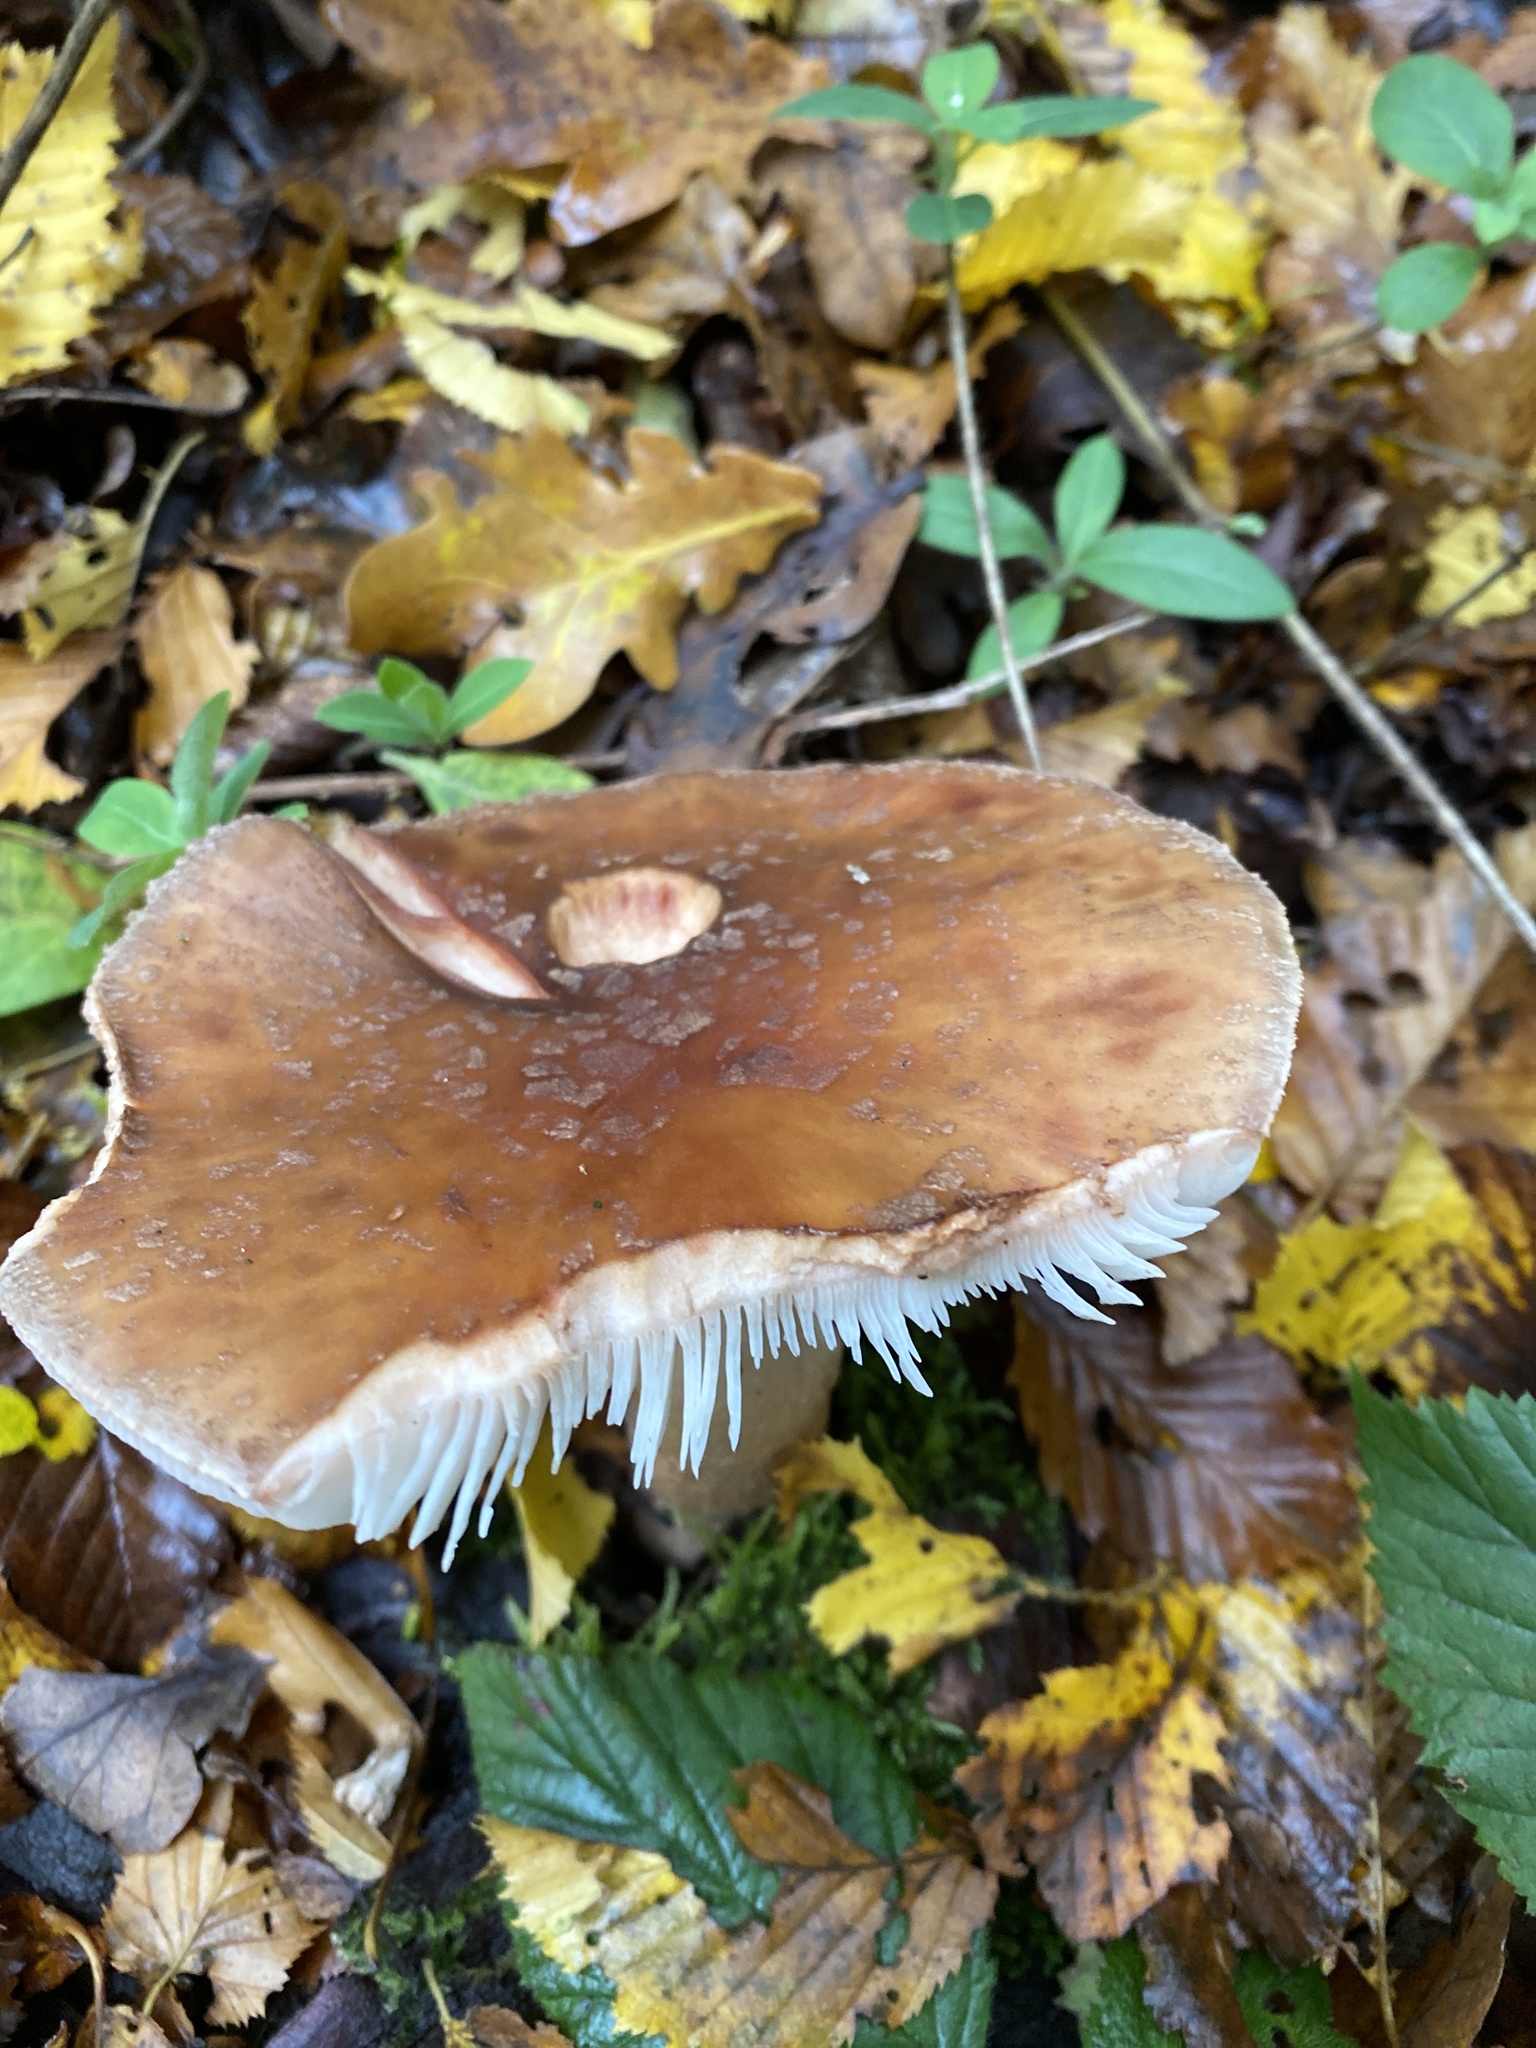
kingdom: Fungi
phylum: Basidiomycota
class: Agaricomycetes
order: Agaricales
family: Amanitaceae
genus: Amanita
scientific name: Amanita rubescens
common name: Blusher
